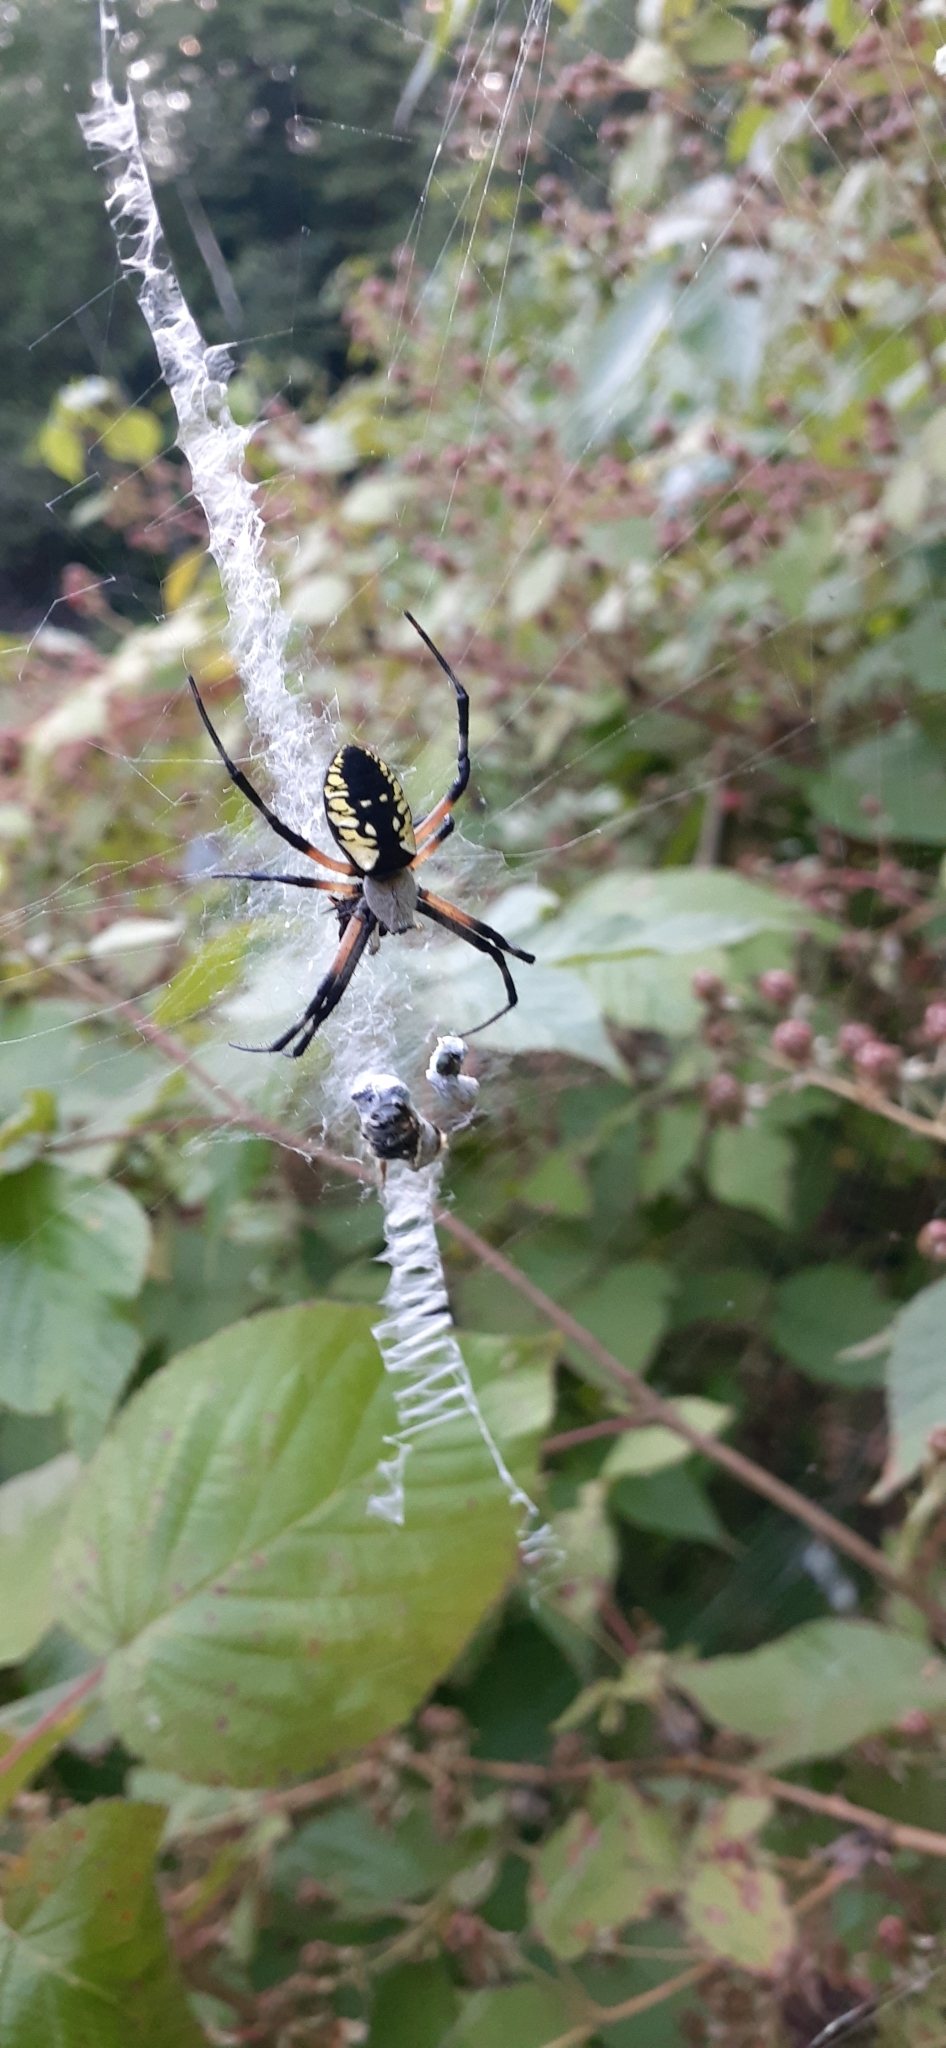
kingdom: Animalia
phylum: Arthropoda
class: Arachnida
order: Araneae
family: Araneidae
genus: Argiope
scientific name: Argiope aurantia
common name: Orb weavers
